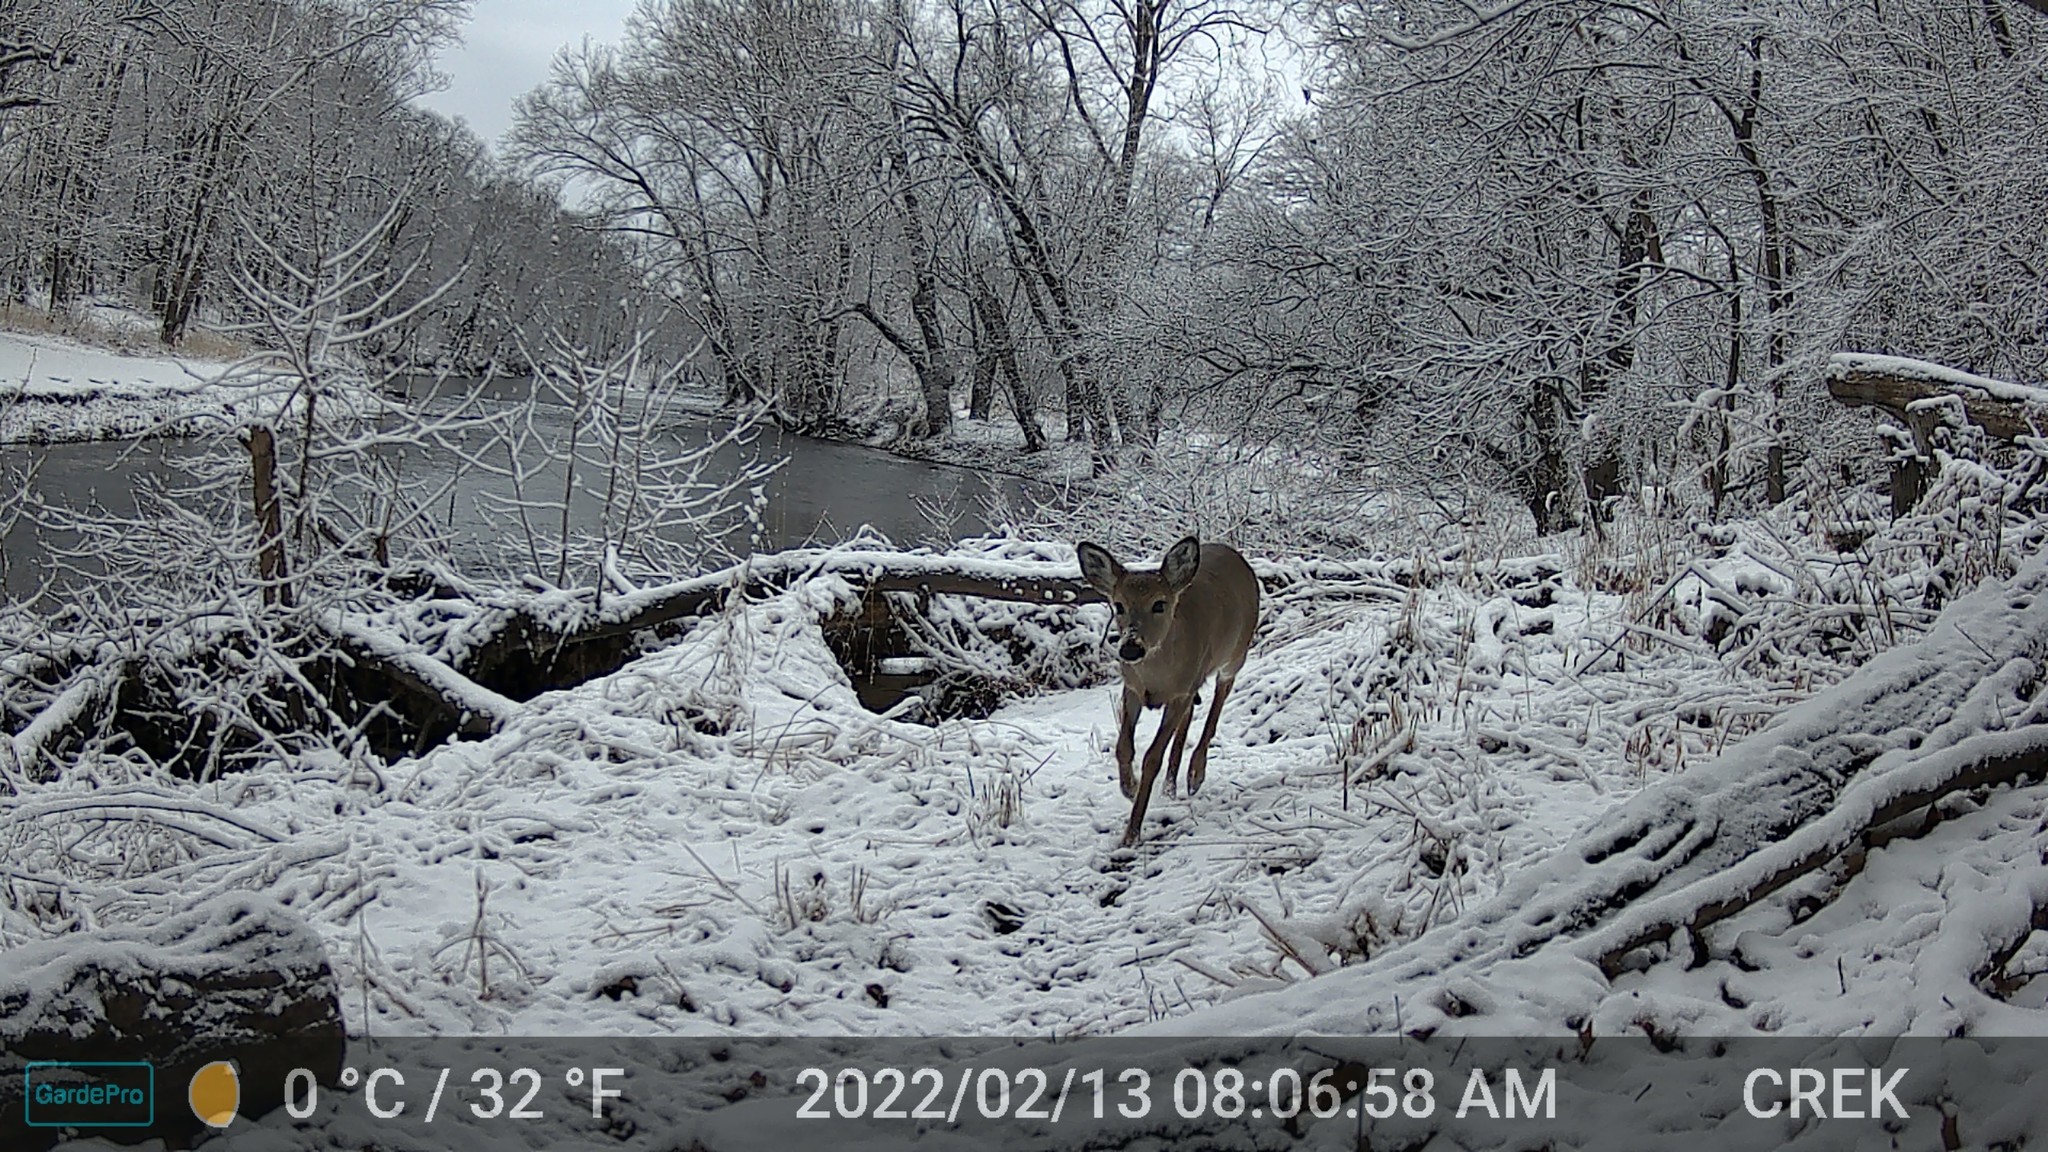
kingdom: Animalia
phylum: Chordata
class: Mammalia
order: Artiodactyla
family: Cervidae
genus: Odocoileus
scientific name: Odocoileus virginianus
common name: White-tailed deer
